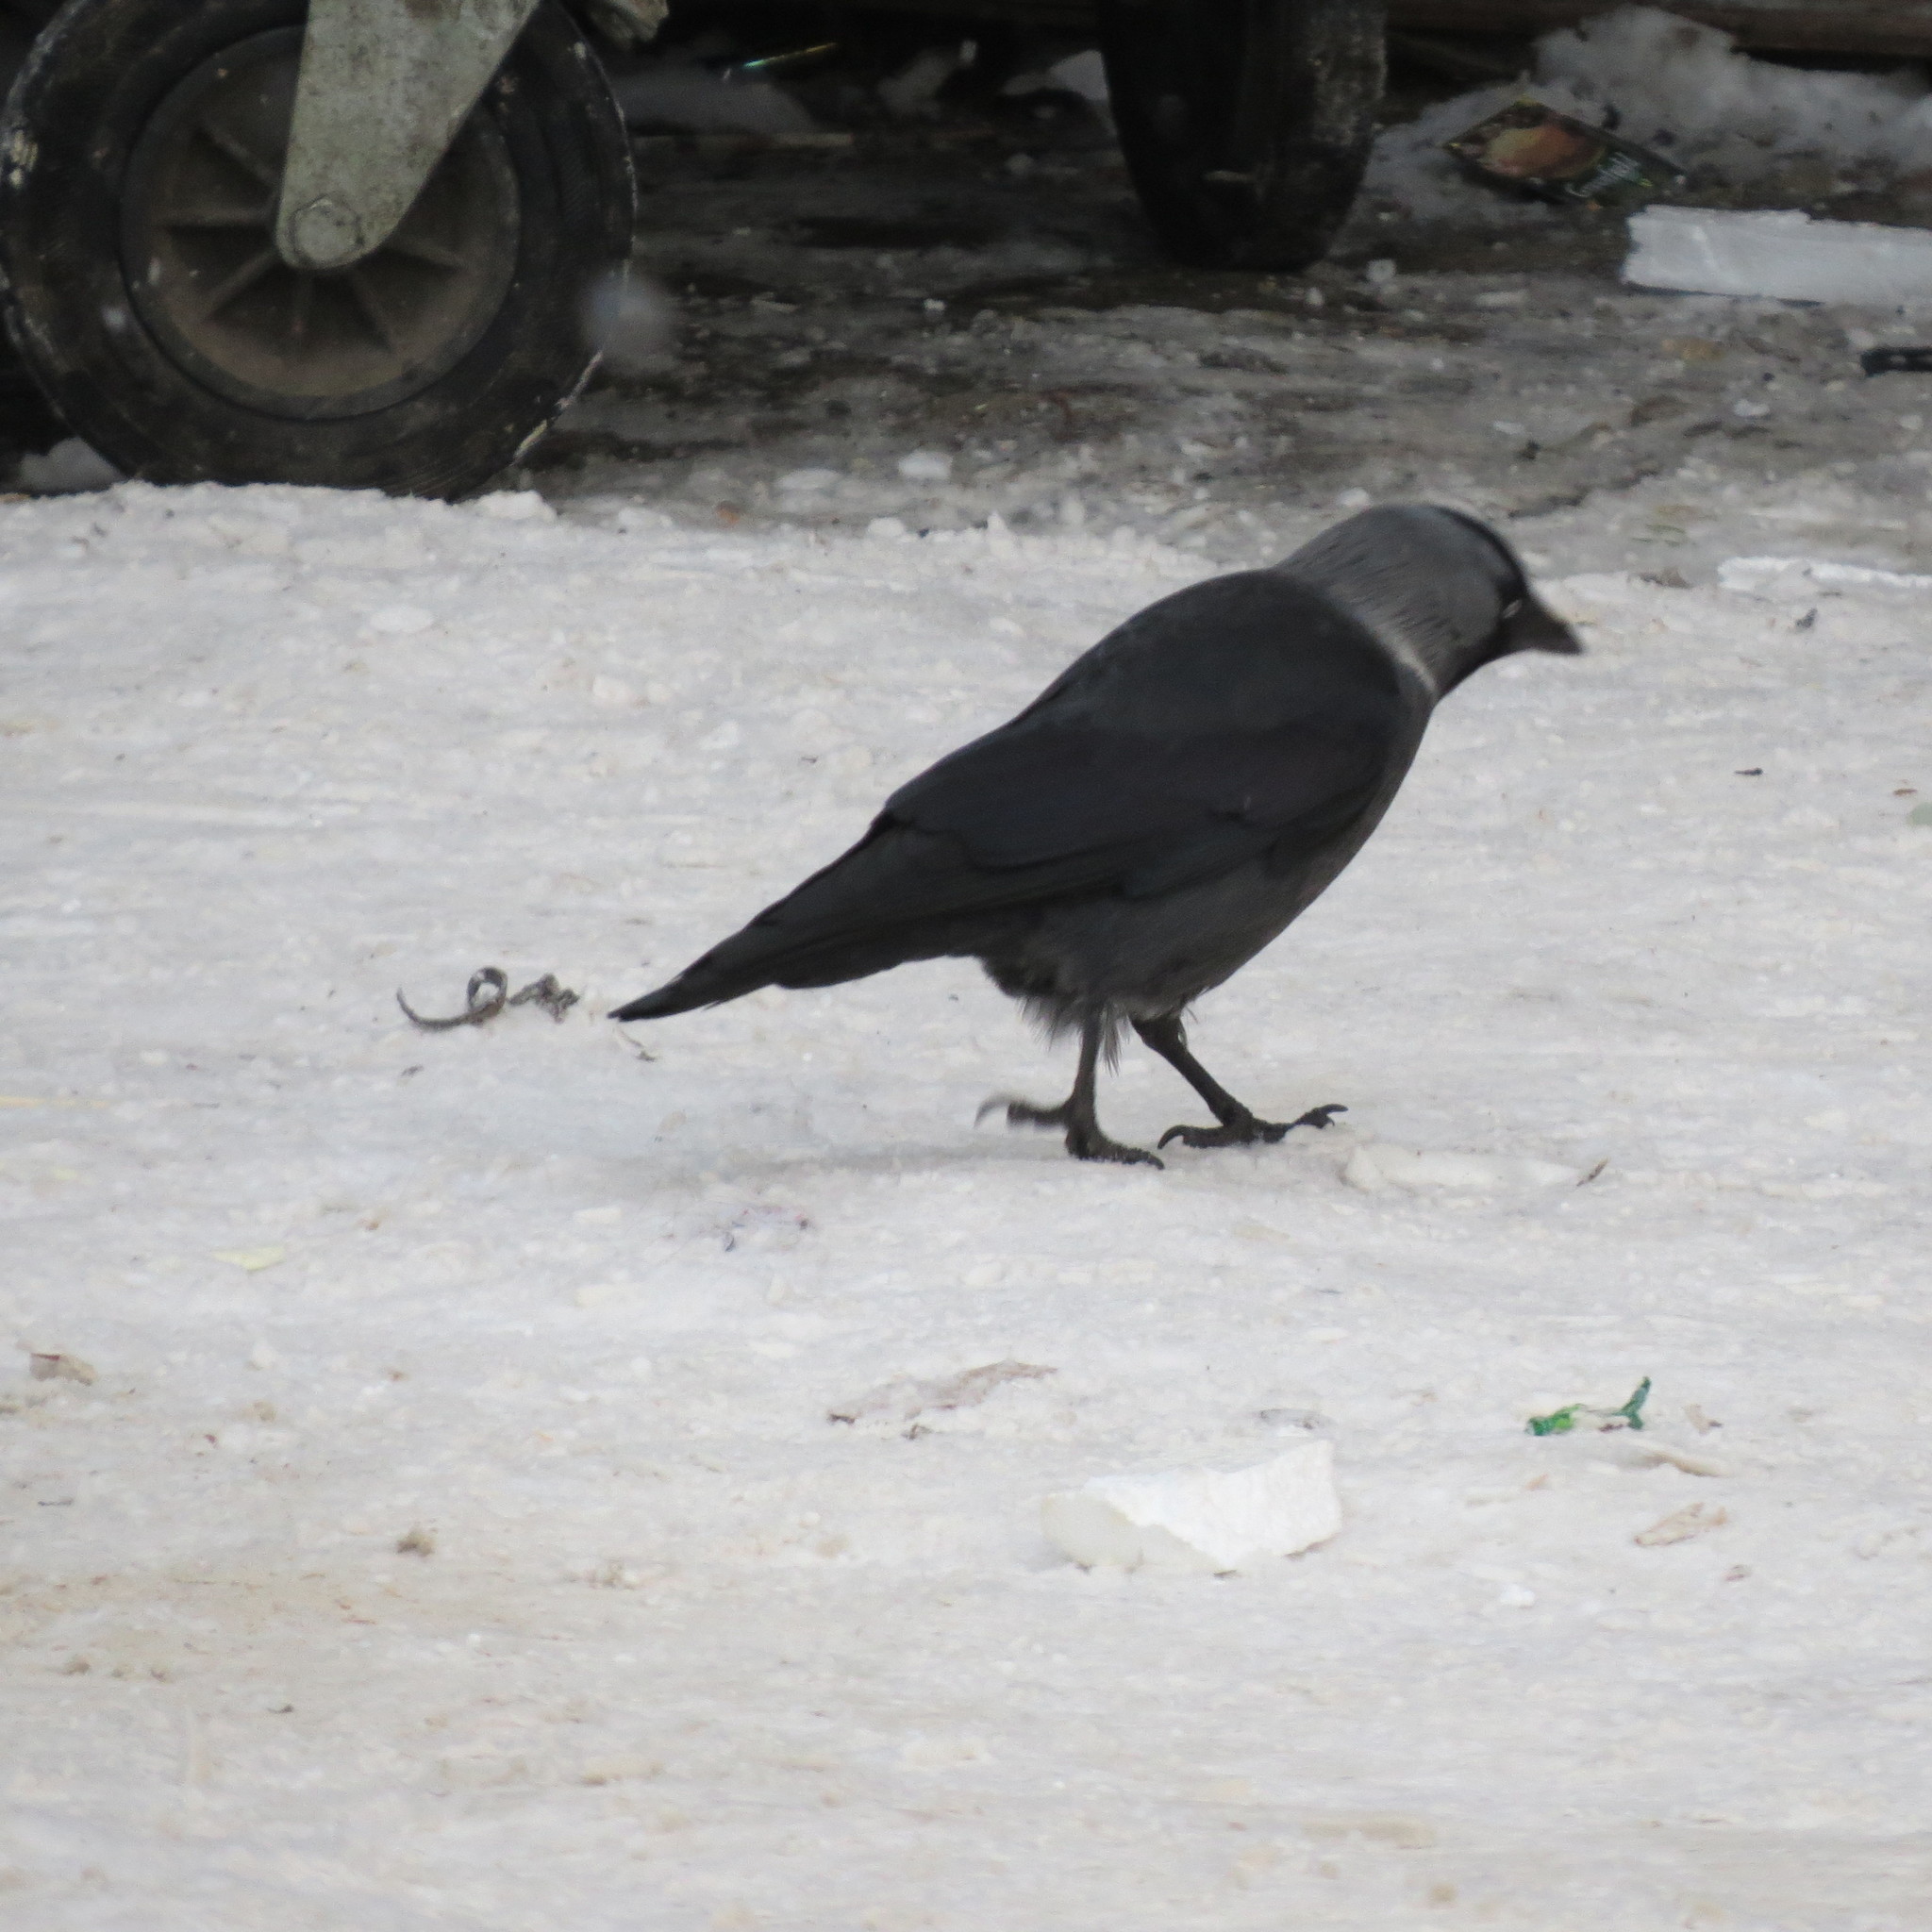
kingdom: Animalia
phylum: Chordata
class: Aves
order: Passeriformes
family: Corvidae
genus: Coloeus
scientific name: Coloeus monedula
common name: Western jackdaw
